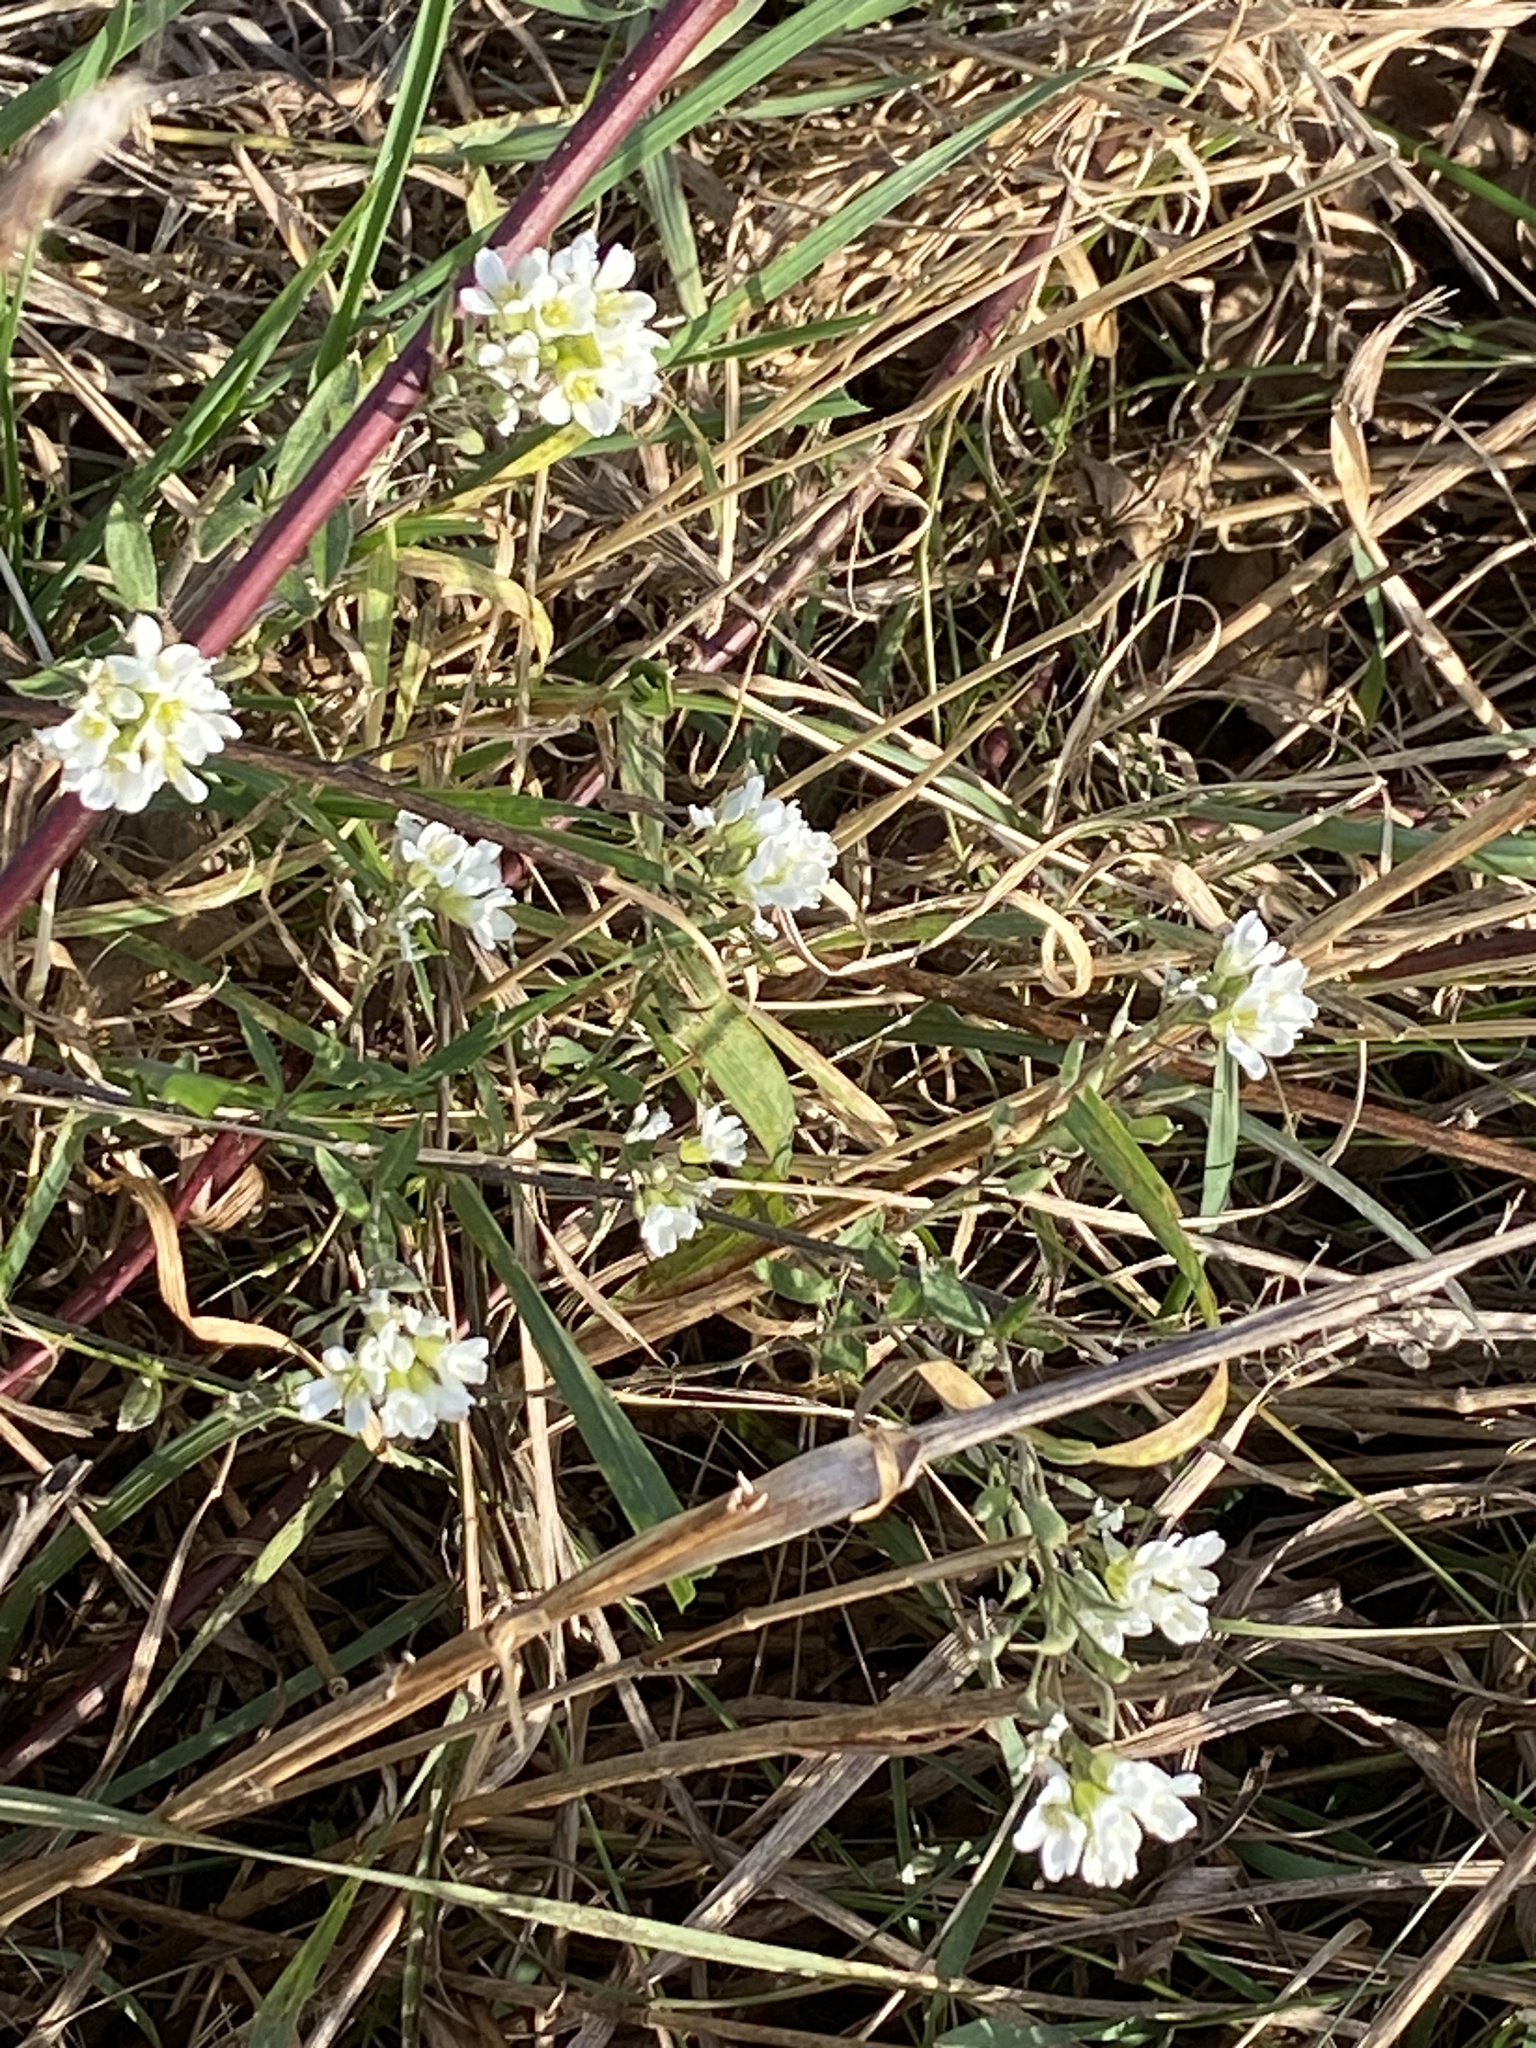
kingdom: Plantae
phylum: Tracheophyta
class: Magnoliopsida
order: Brassicales
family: Brassicaceae
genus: Berteroa
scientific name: Berteroa incana
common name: Hoary alison
